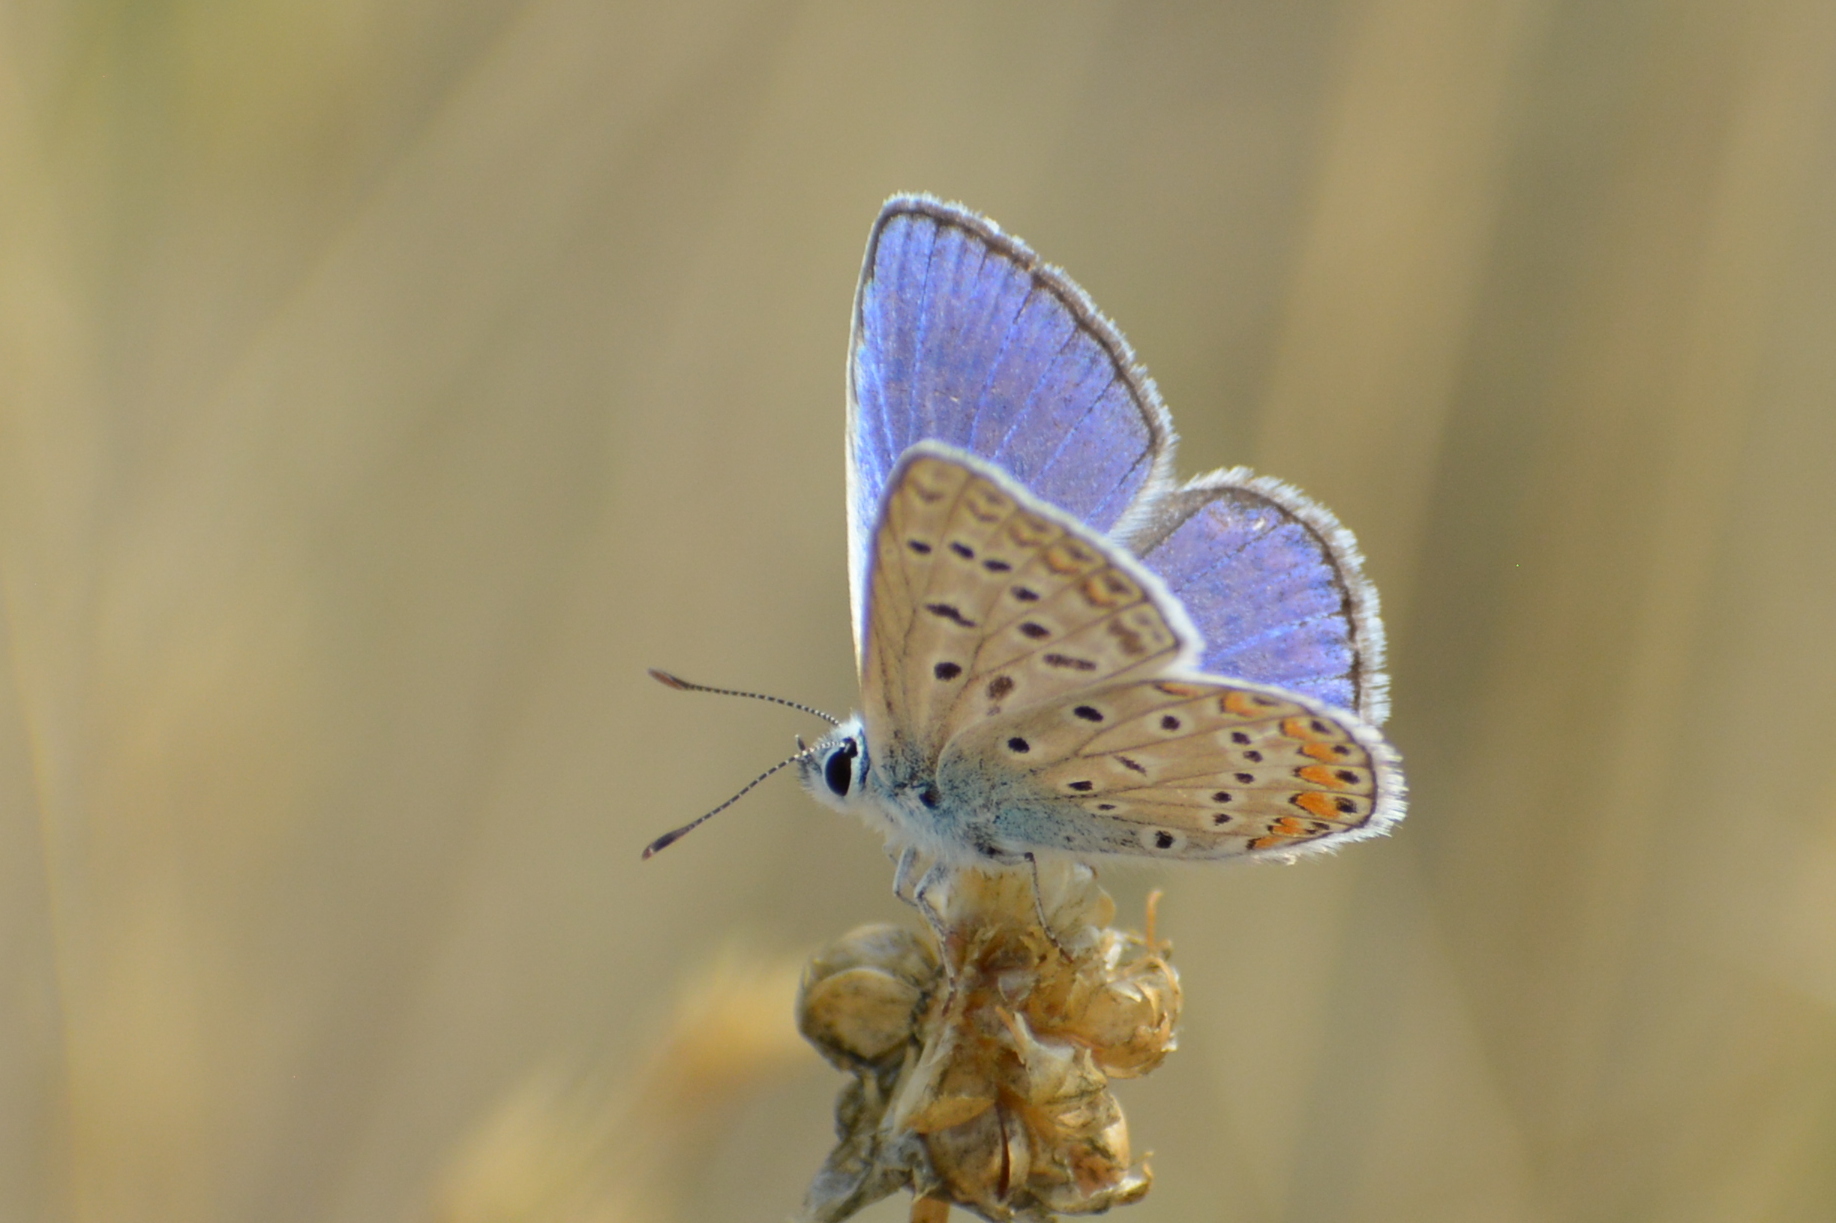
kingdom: Animalia
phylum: Arthropoda
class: Insecta
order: Lepidoptera
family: Lycaenidae
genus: Polyommatus
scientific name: Polyommatus icarus
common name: Common blue
